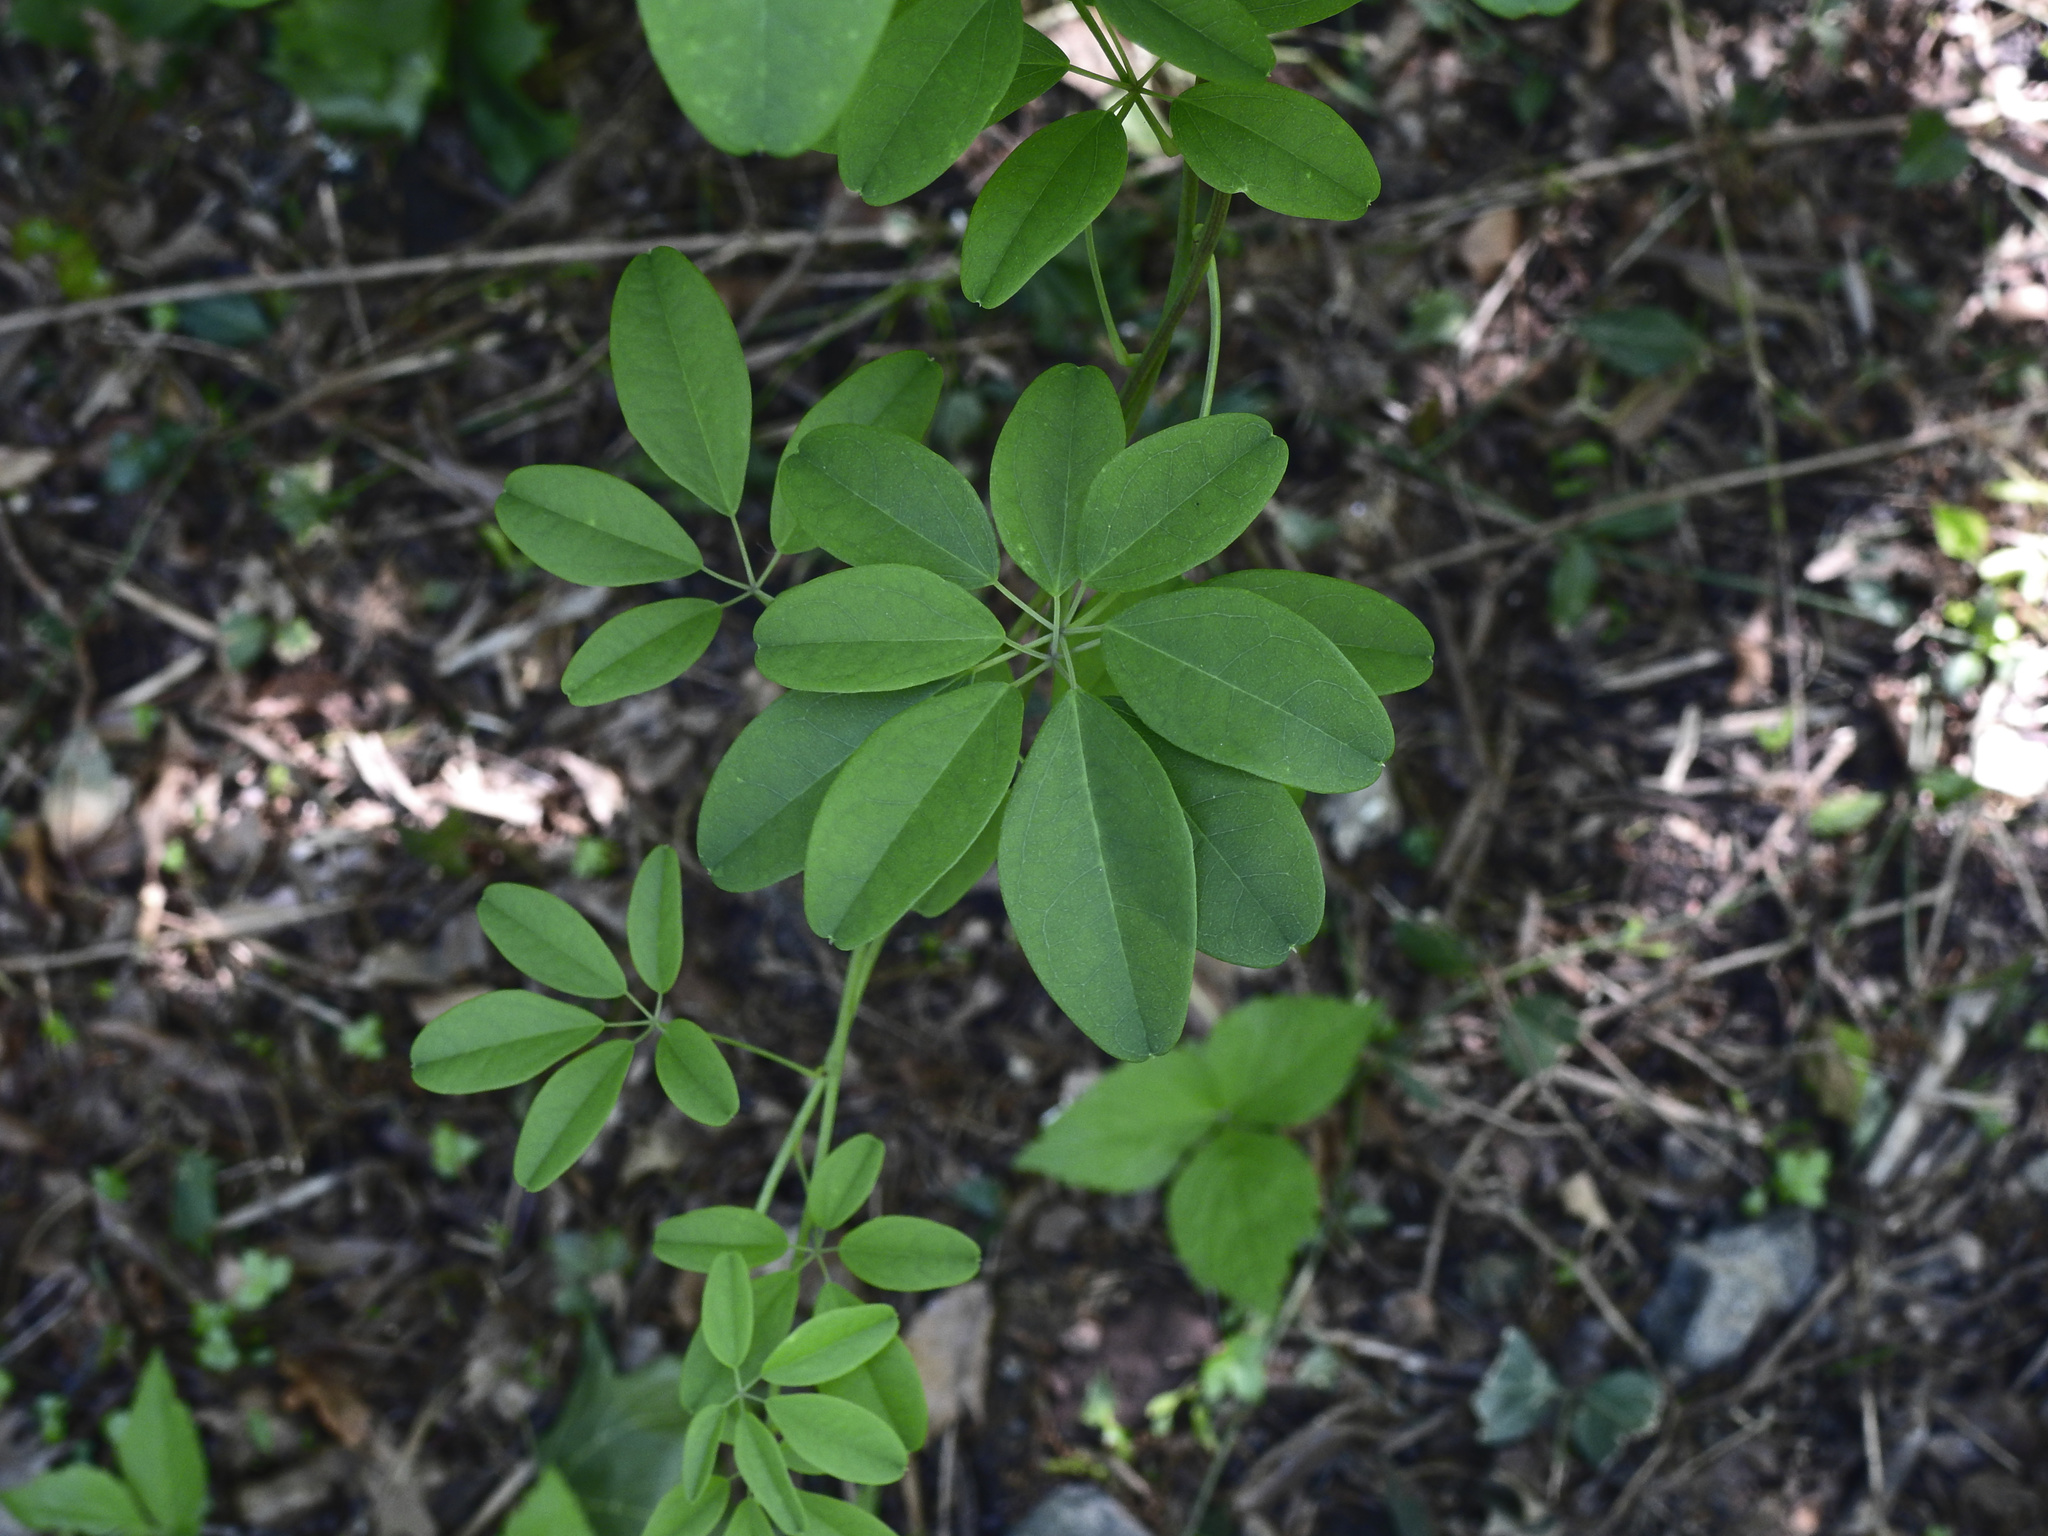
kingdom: Plantae
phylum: Tracheophyta
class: Magnoliopsida
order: Ranunculales
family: Lardizabalaceae
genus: Akebia
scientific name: Akebia quinata
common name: Five-leaf akebia
